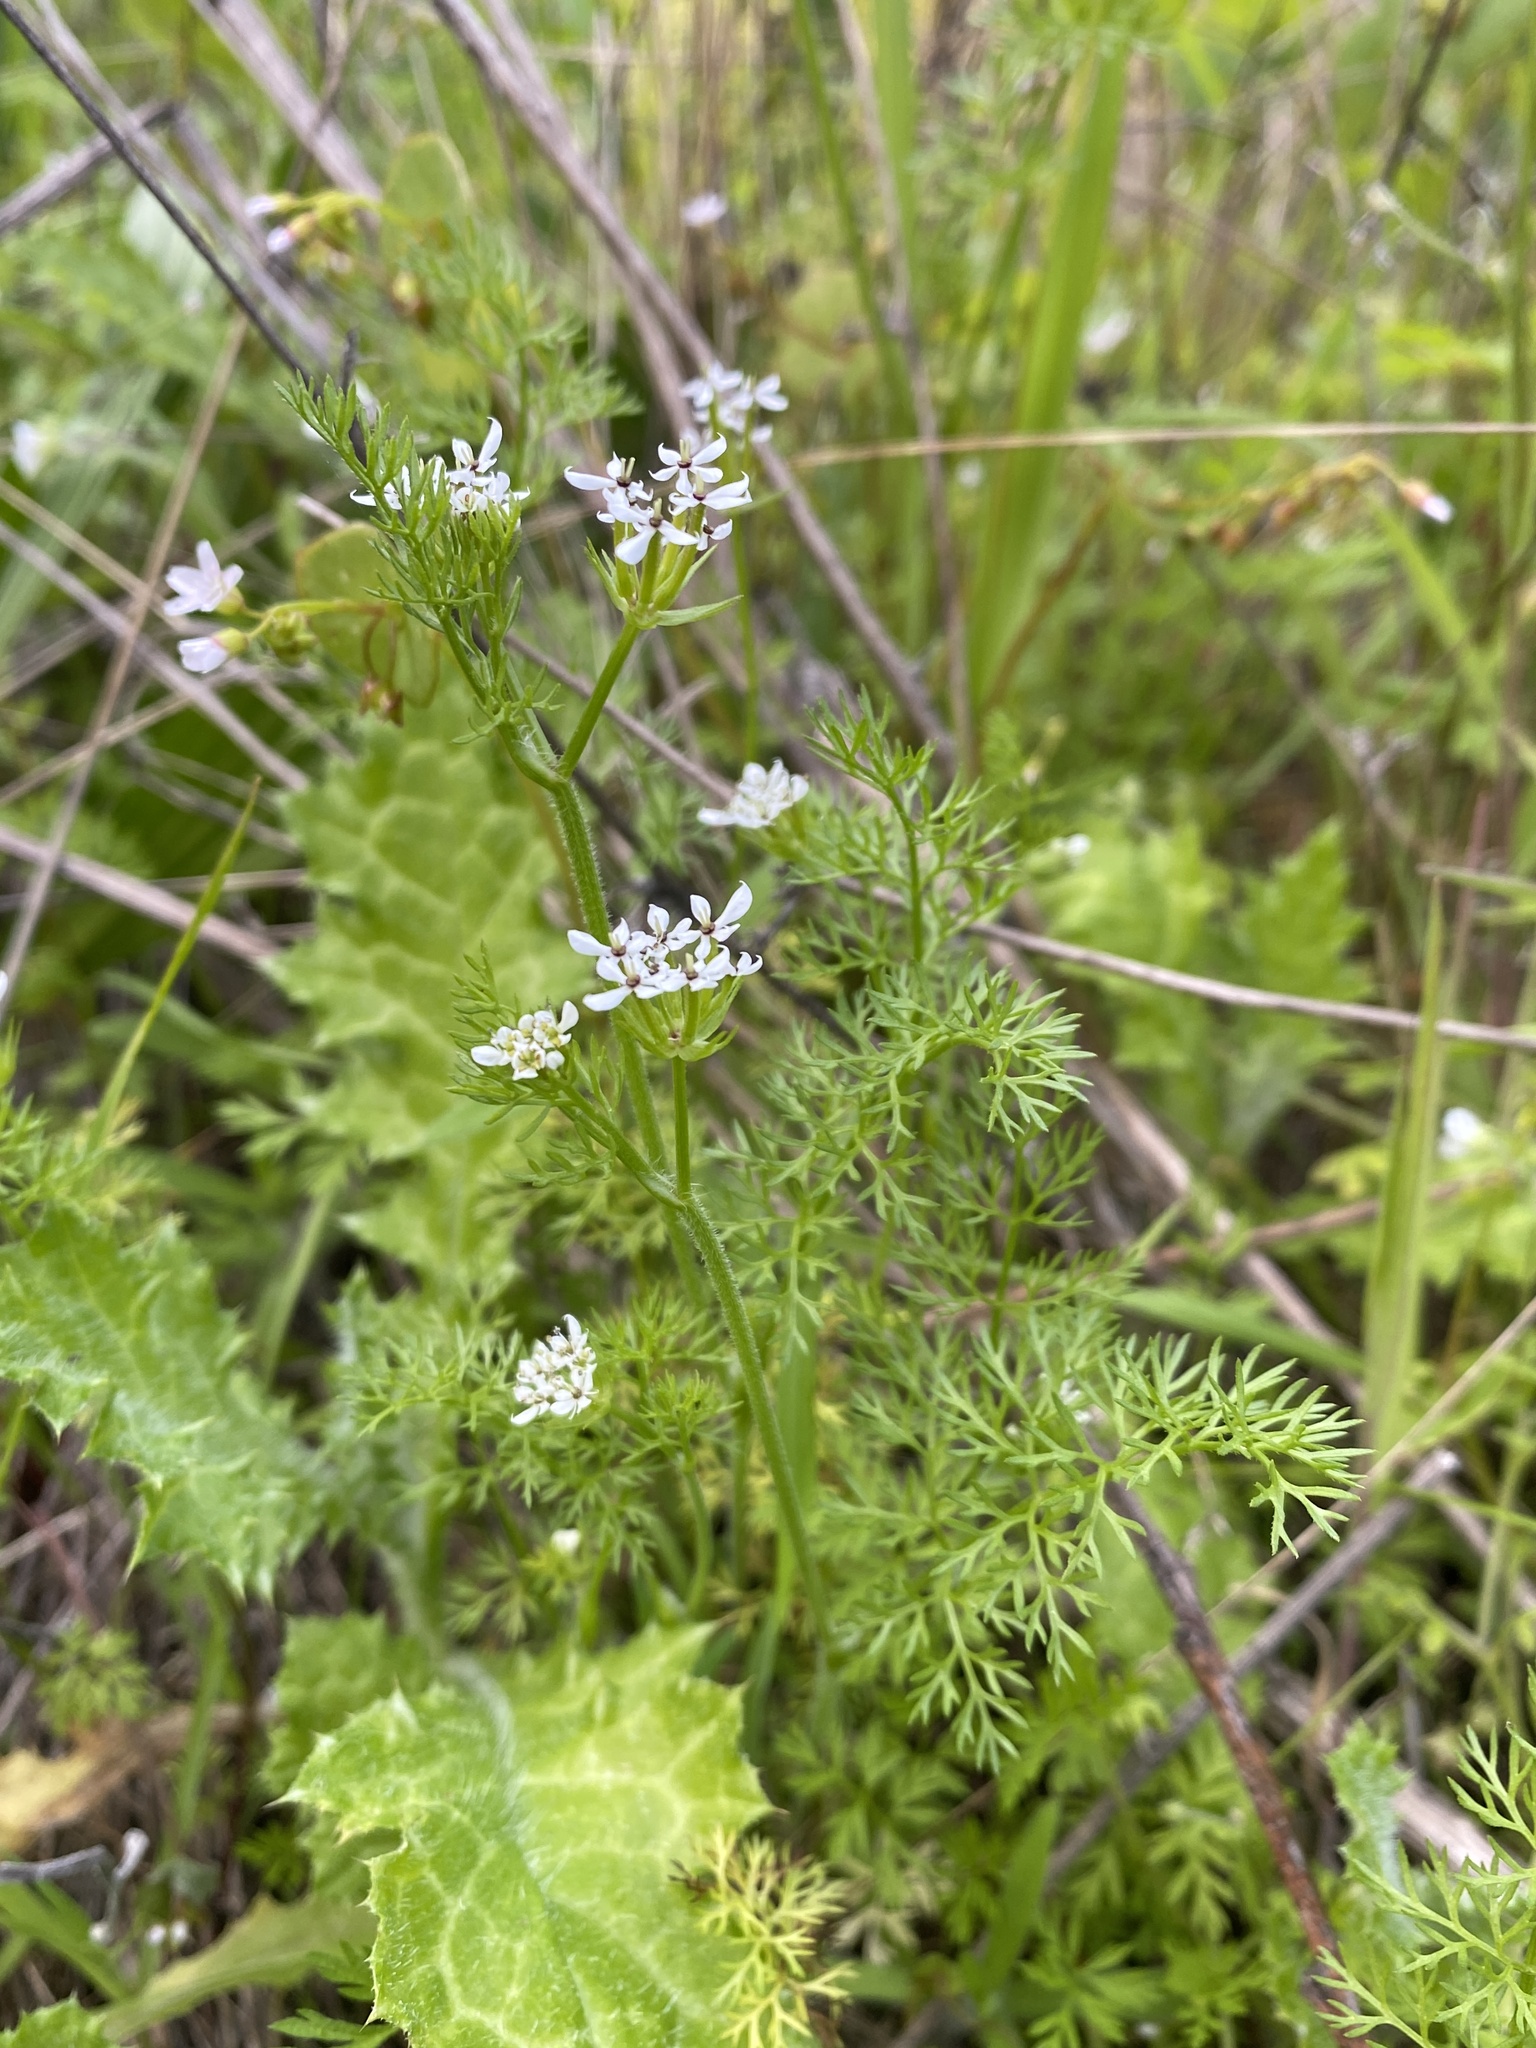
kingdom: Plantae
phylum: Tracheophyta
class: Magnoliopsida
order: Apiales
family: Apiaceae
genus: Scandix
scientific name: Scandix pecten-veneris
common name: Shepherd's-needle
